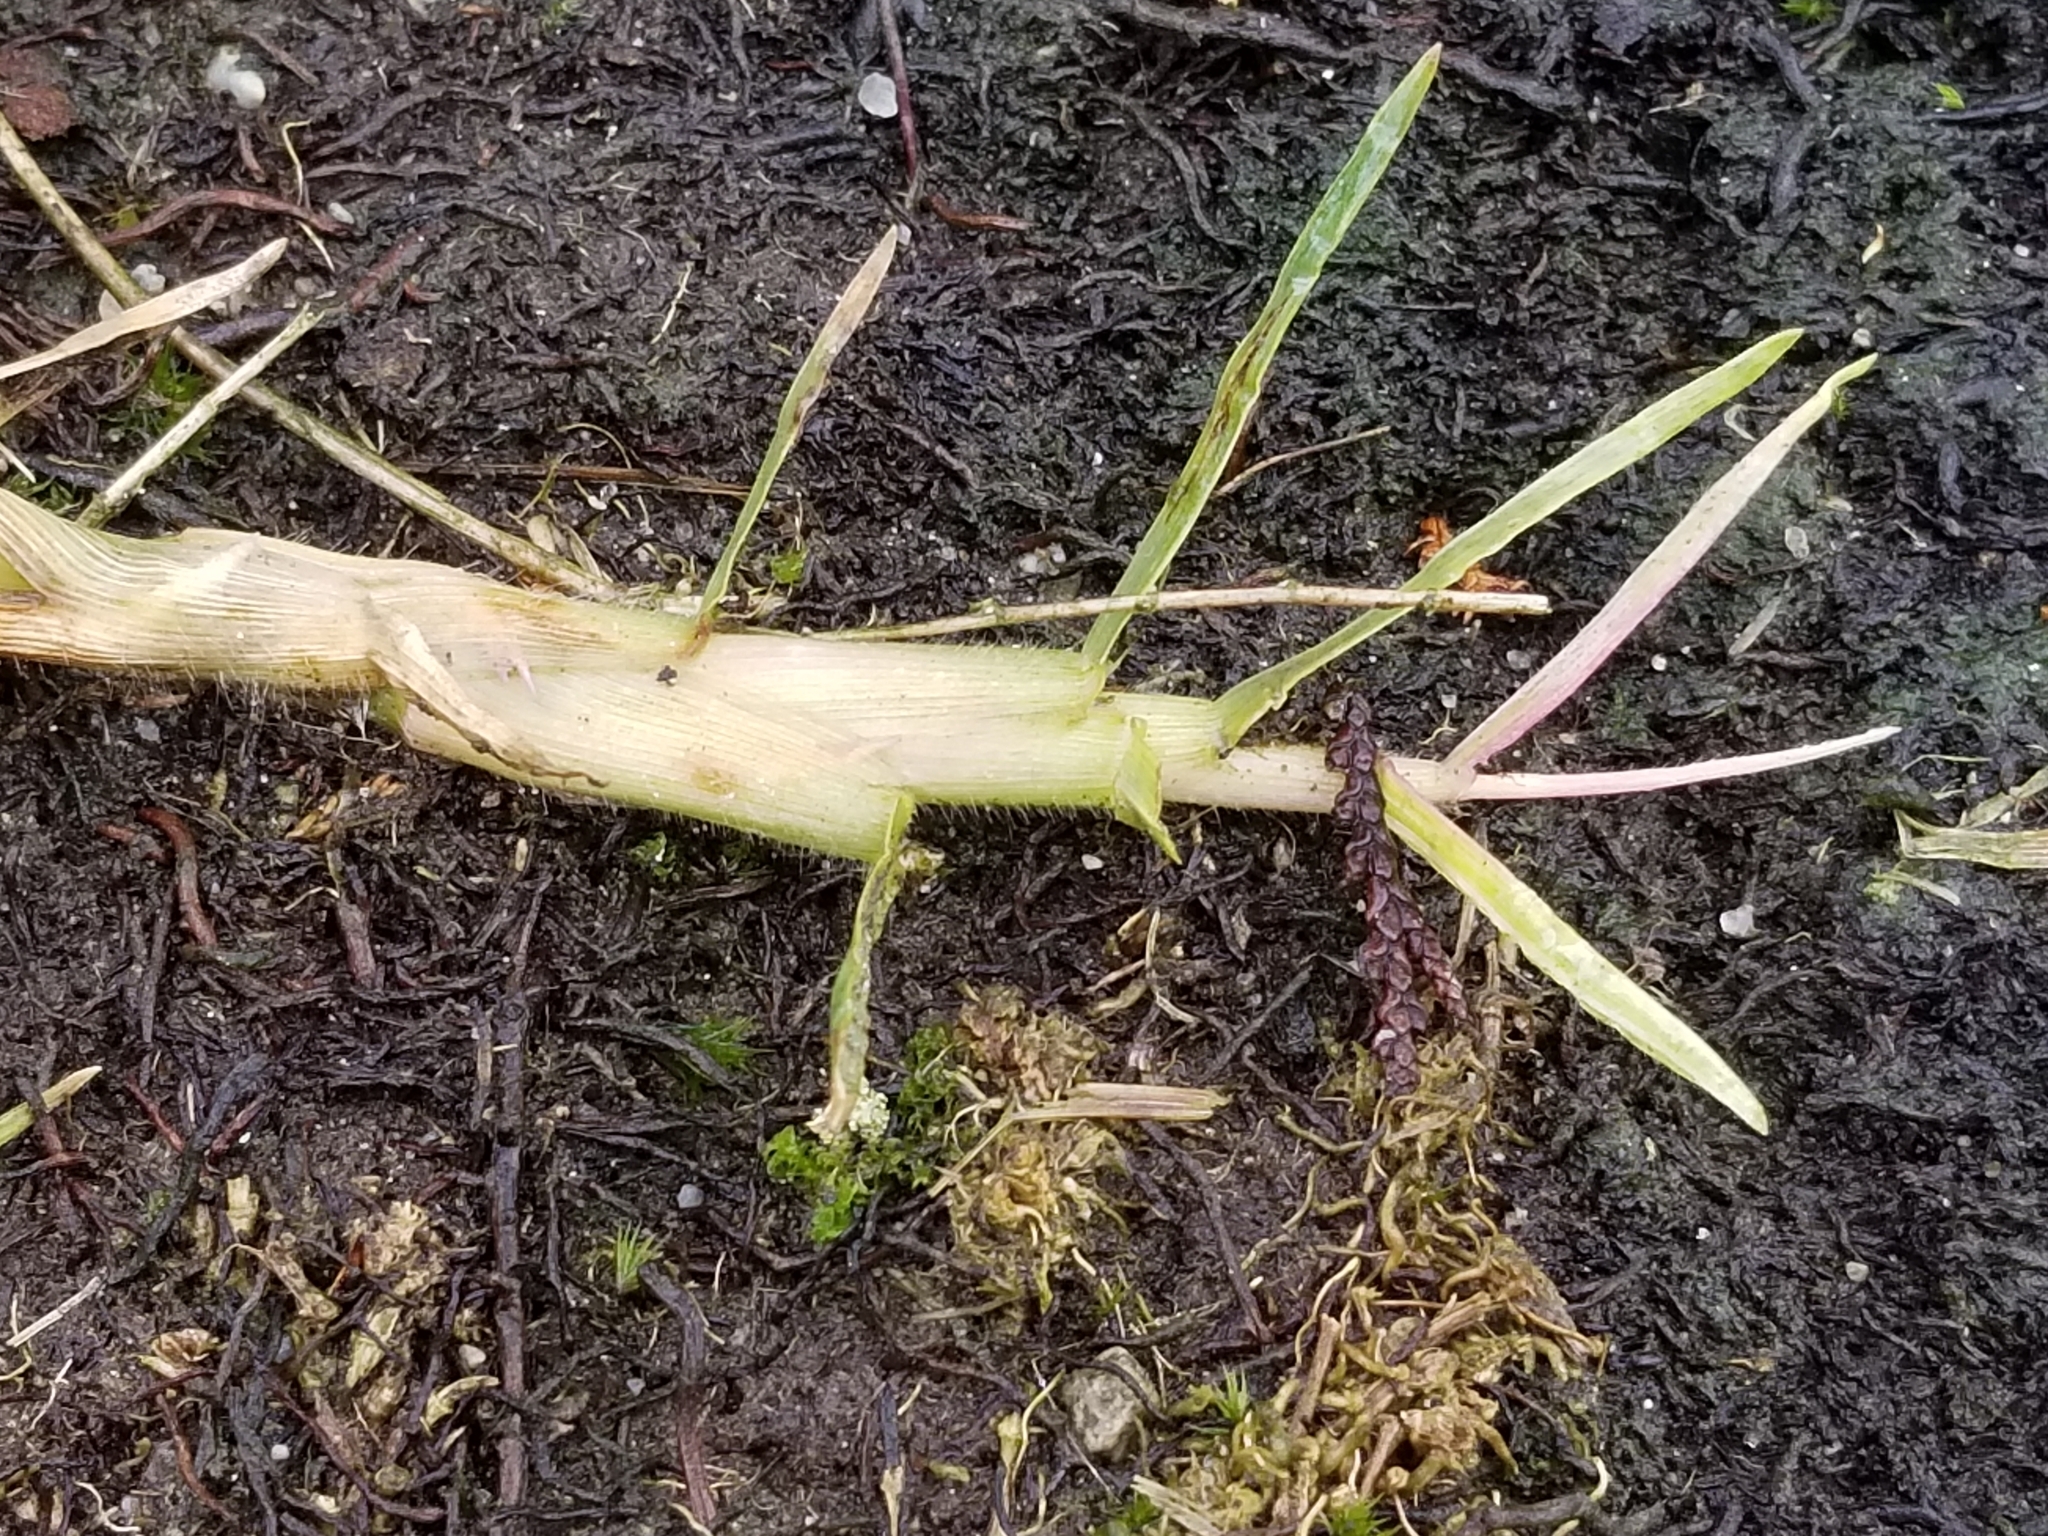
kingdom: Plantae
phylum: Tracheophyta
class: Liliopsida
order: Poales
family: Poaceae
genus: Cenchrus
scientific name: Cenchrus clandestinus
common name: Kikuyugrass
